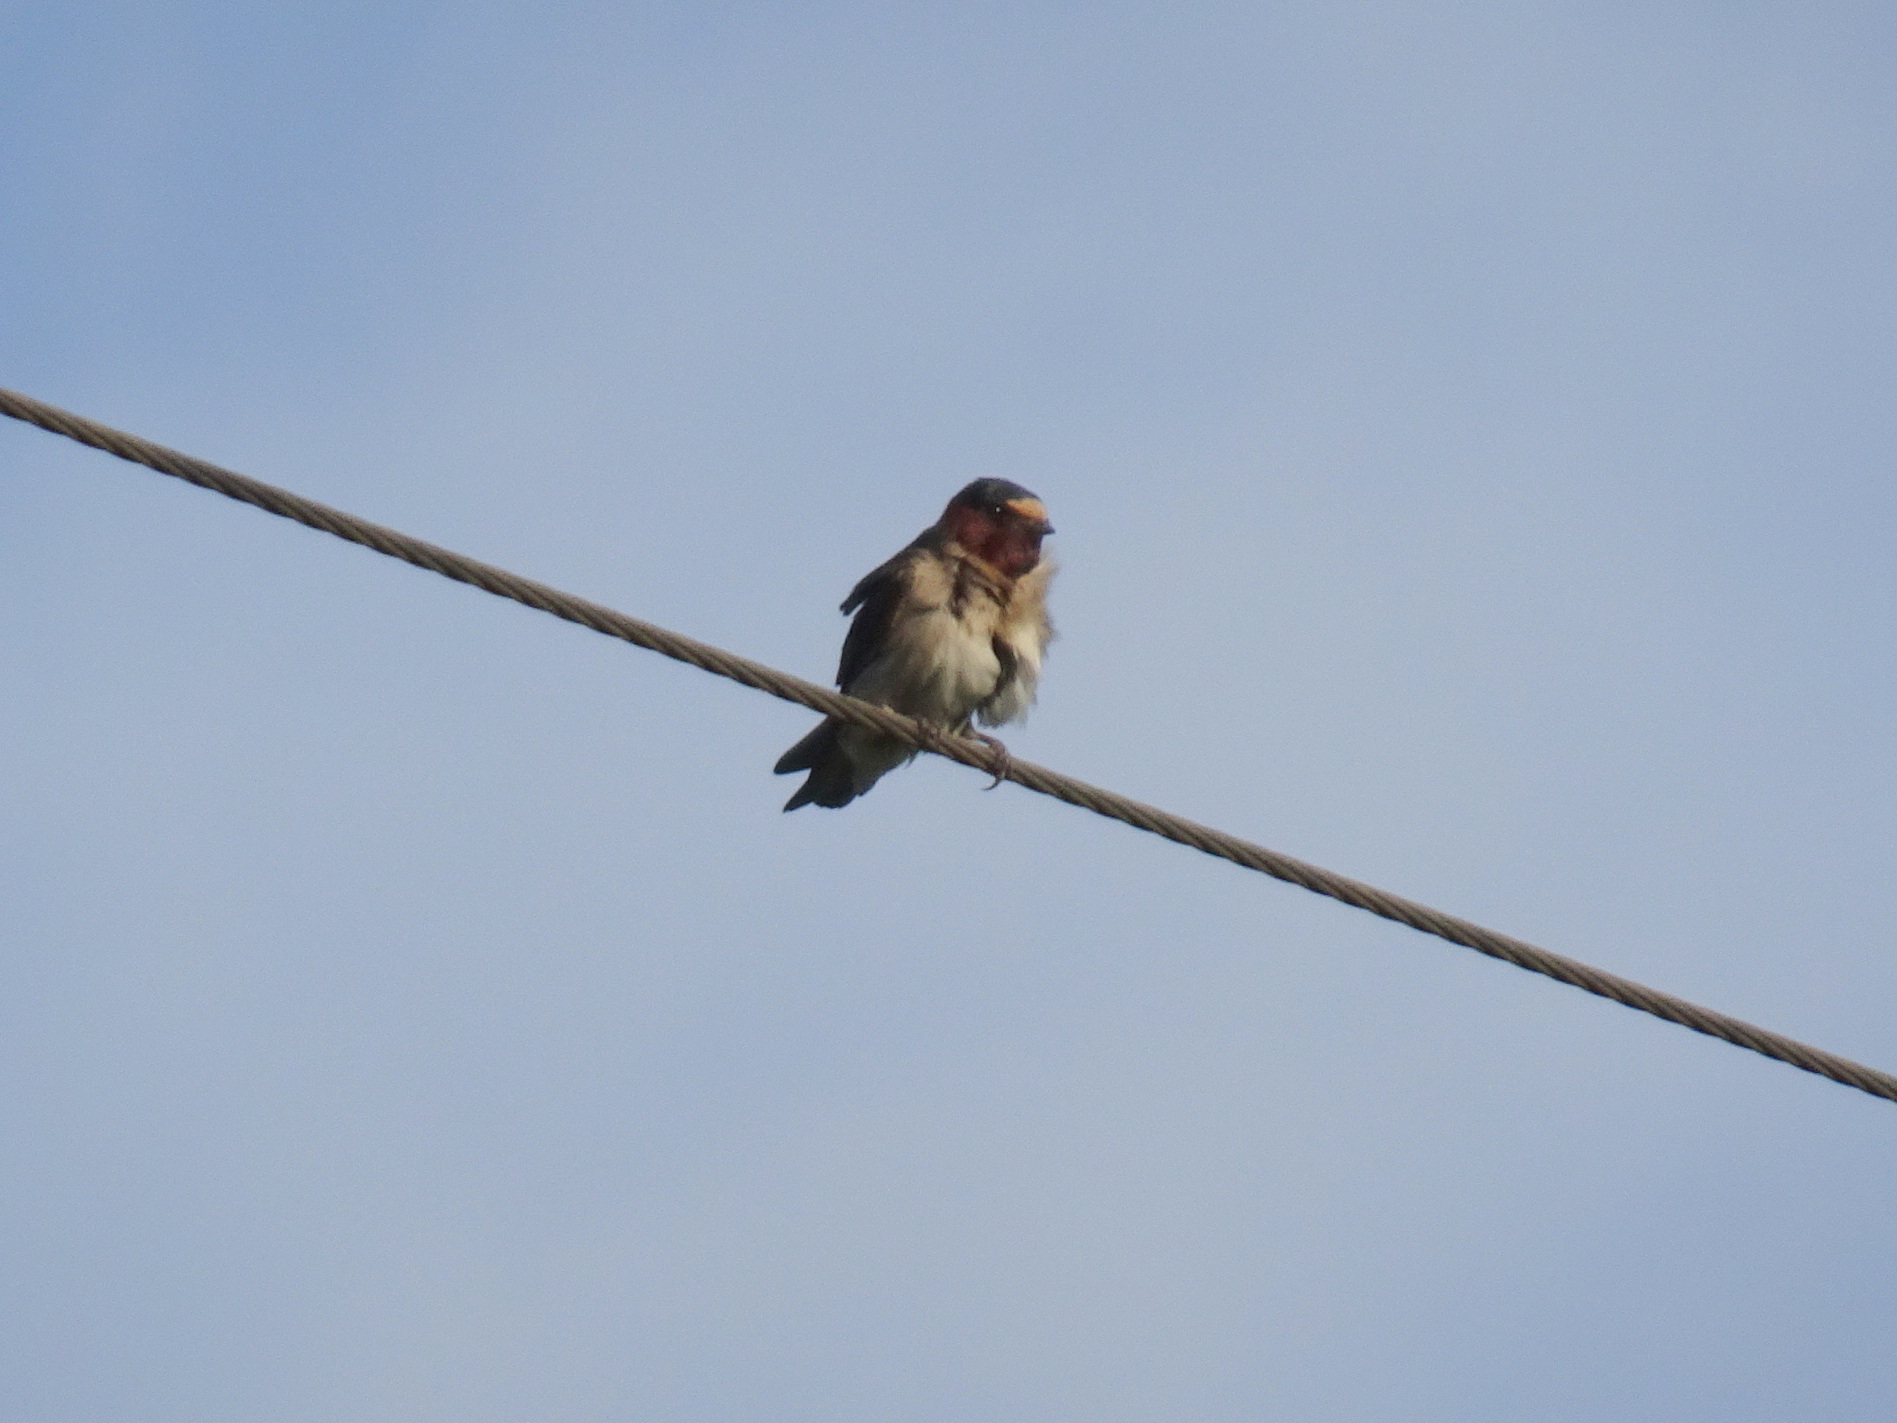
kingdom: Animalia
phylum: Chordata
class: Aves
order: Passeriformes
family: Hirundinidae
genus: Petrochelidon
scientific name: Petrochelidon pyrrhonota
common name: American cliff swallow
